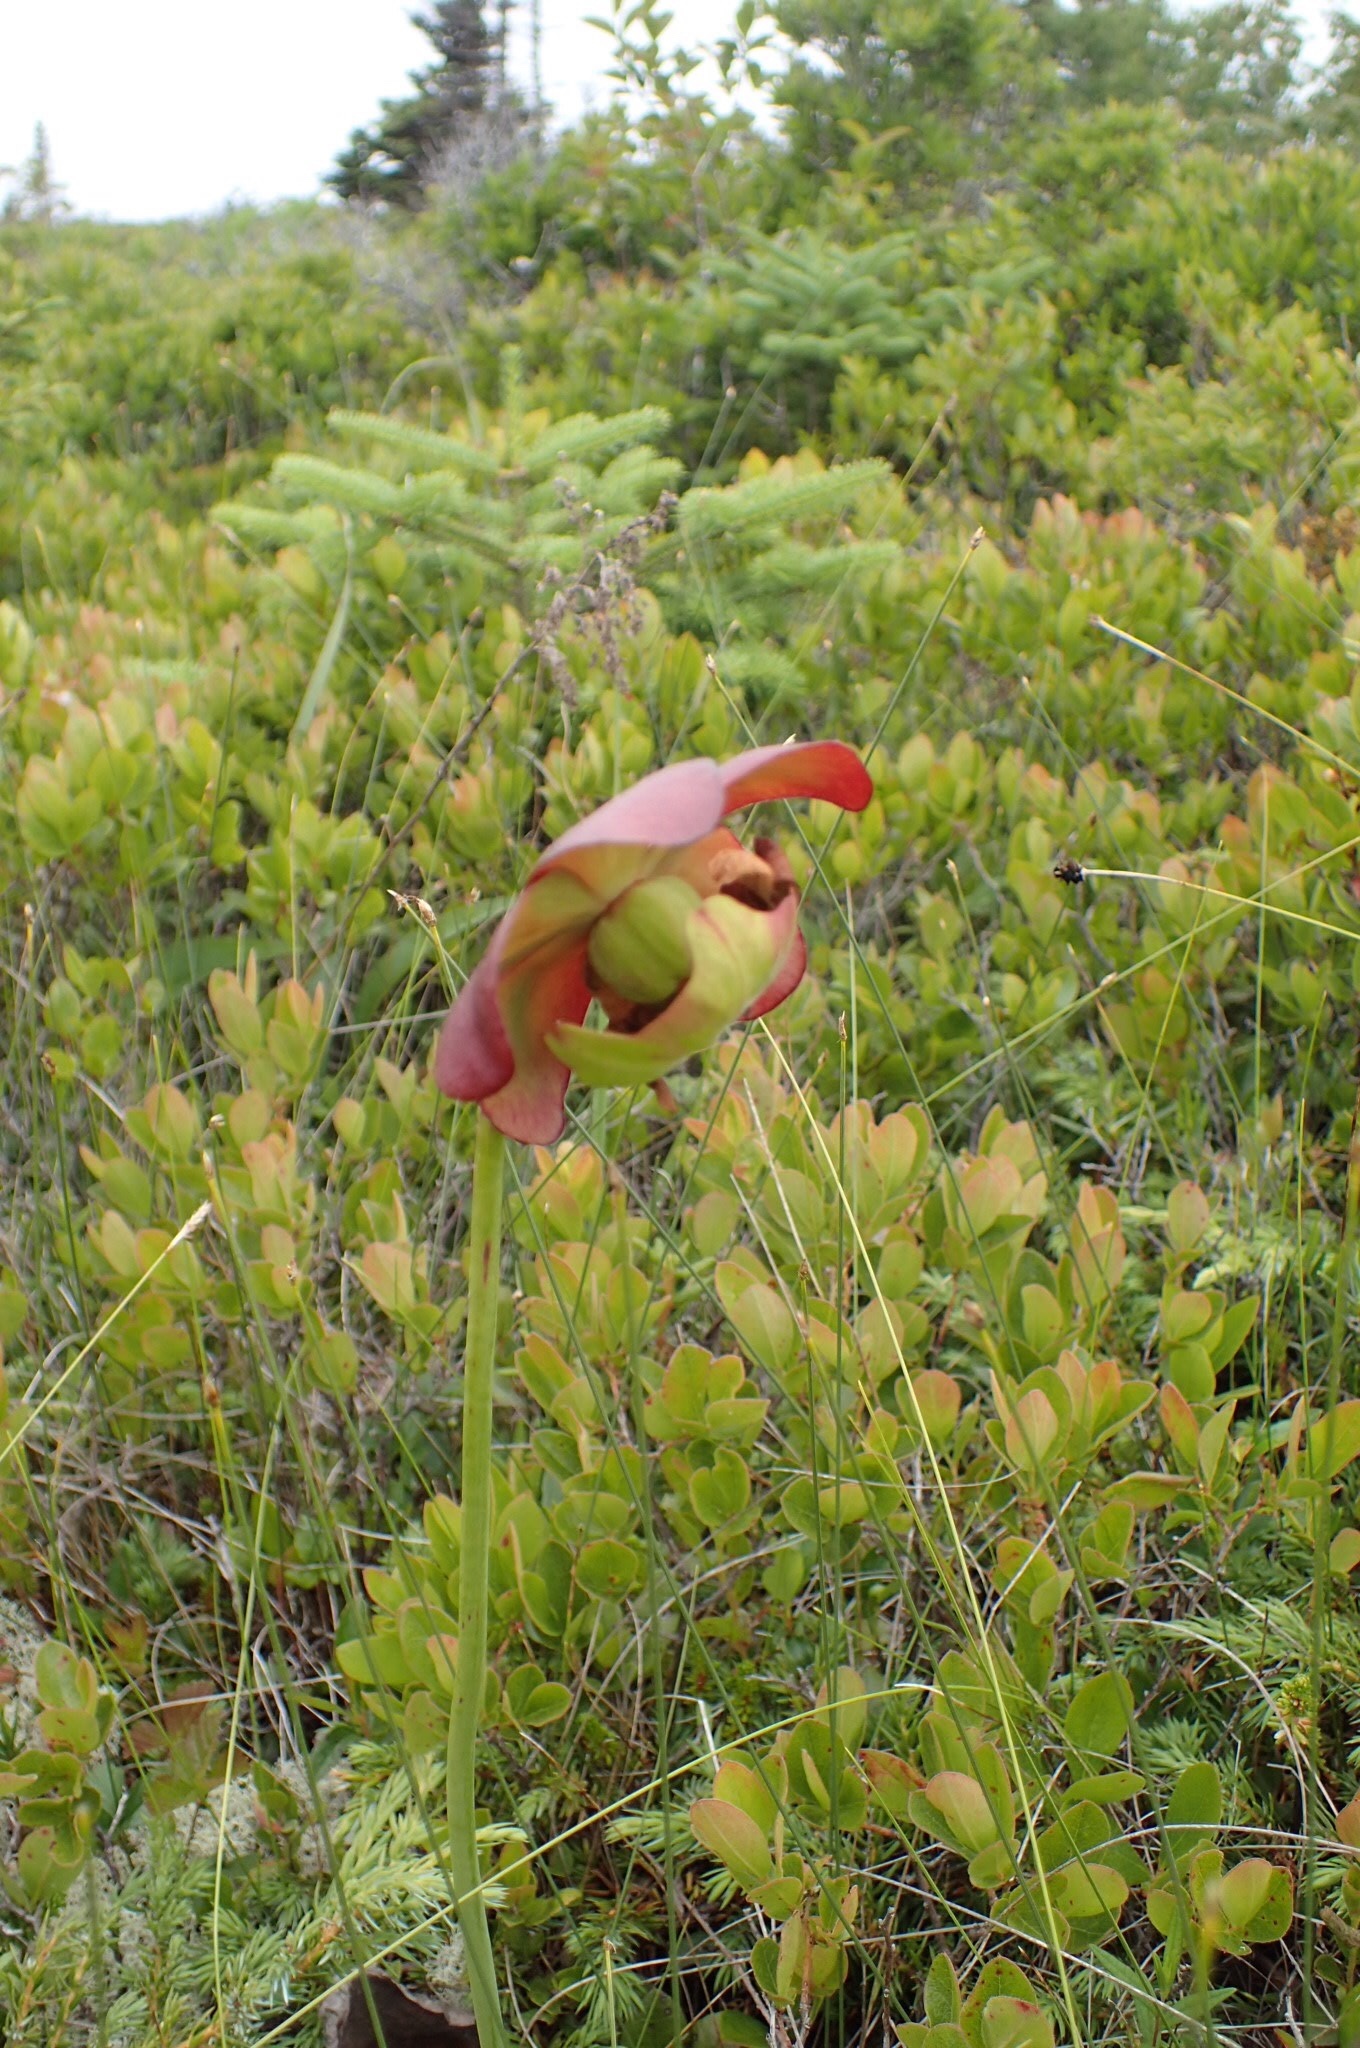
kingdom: Plantae
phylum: Tracheophyta
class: Magnoliopsida
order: Ericales
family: Sarraceniaceae
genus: Sarracenia
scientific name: Sarracenia purpurea
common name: Pitcherplant
